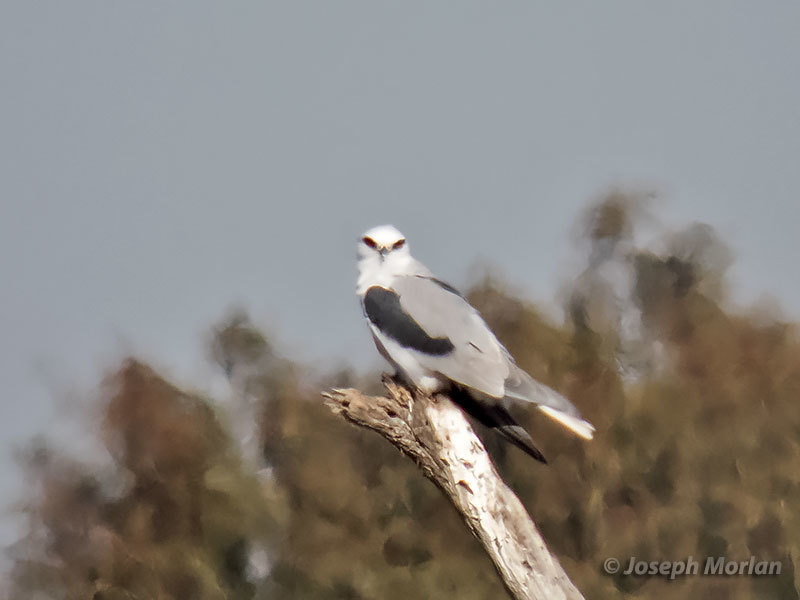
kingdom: Animalia
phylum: Chordata
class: Aves
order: Accipitriformes
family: Accipitridae
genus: Elanus
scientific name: Elanus leucurus
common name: White-tailed kite
